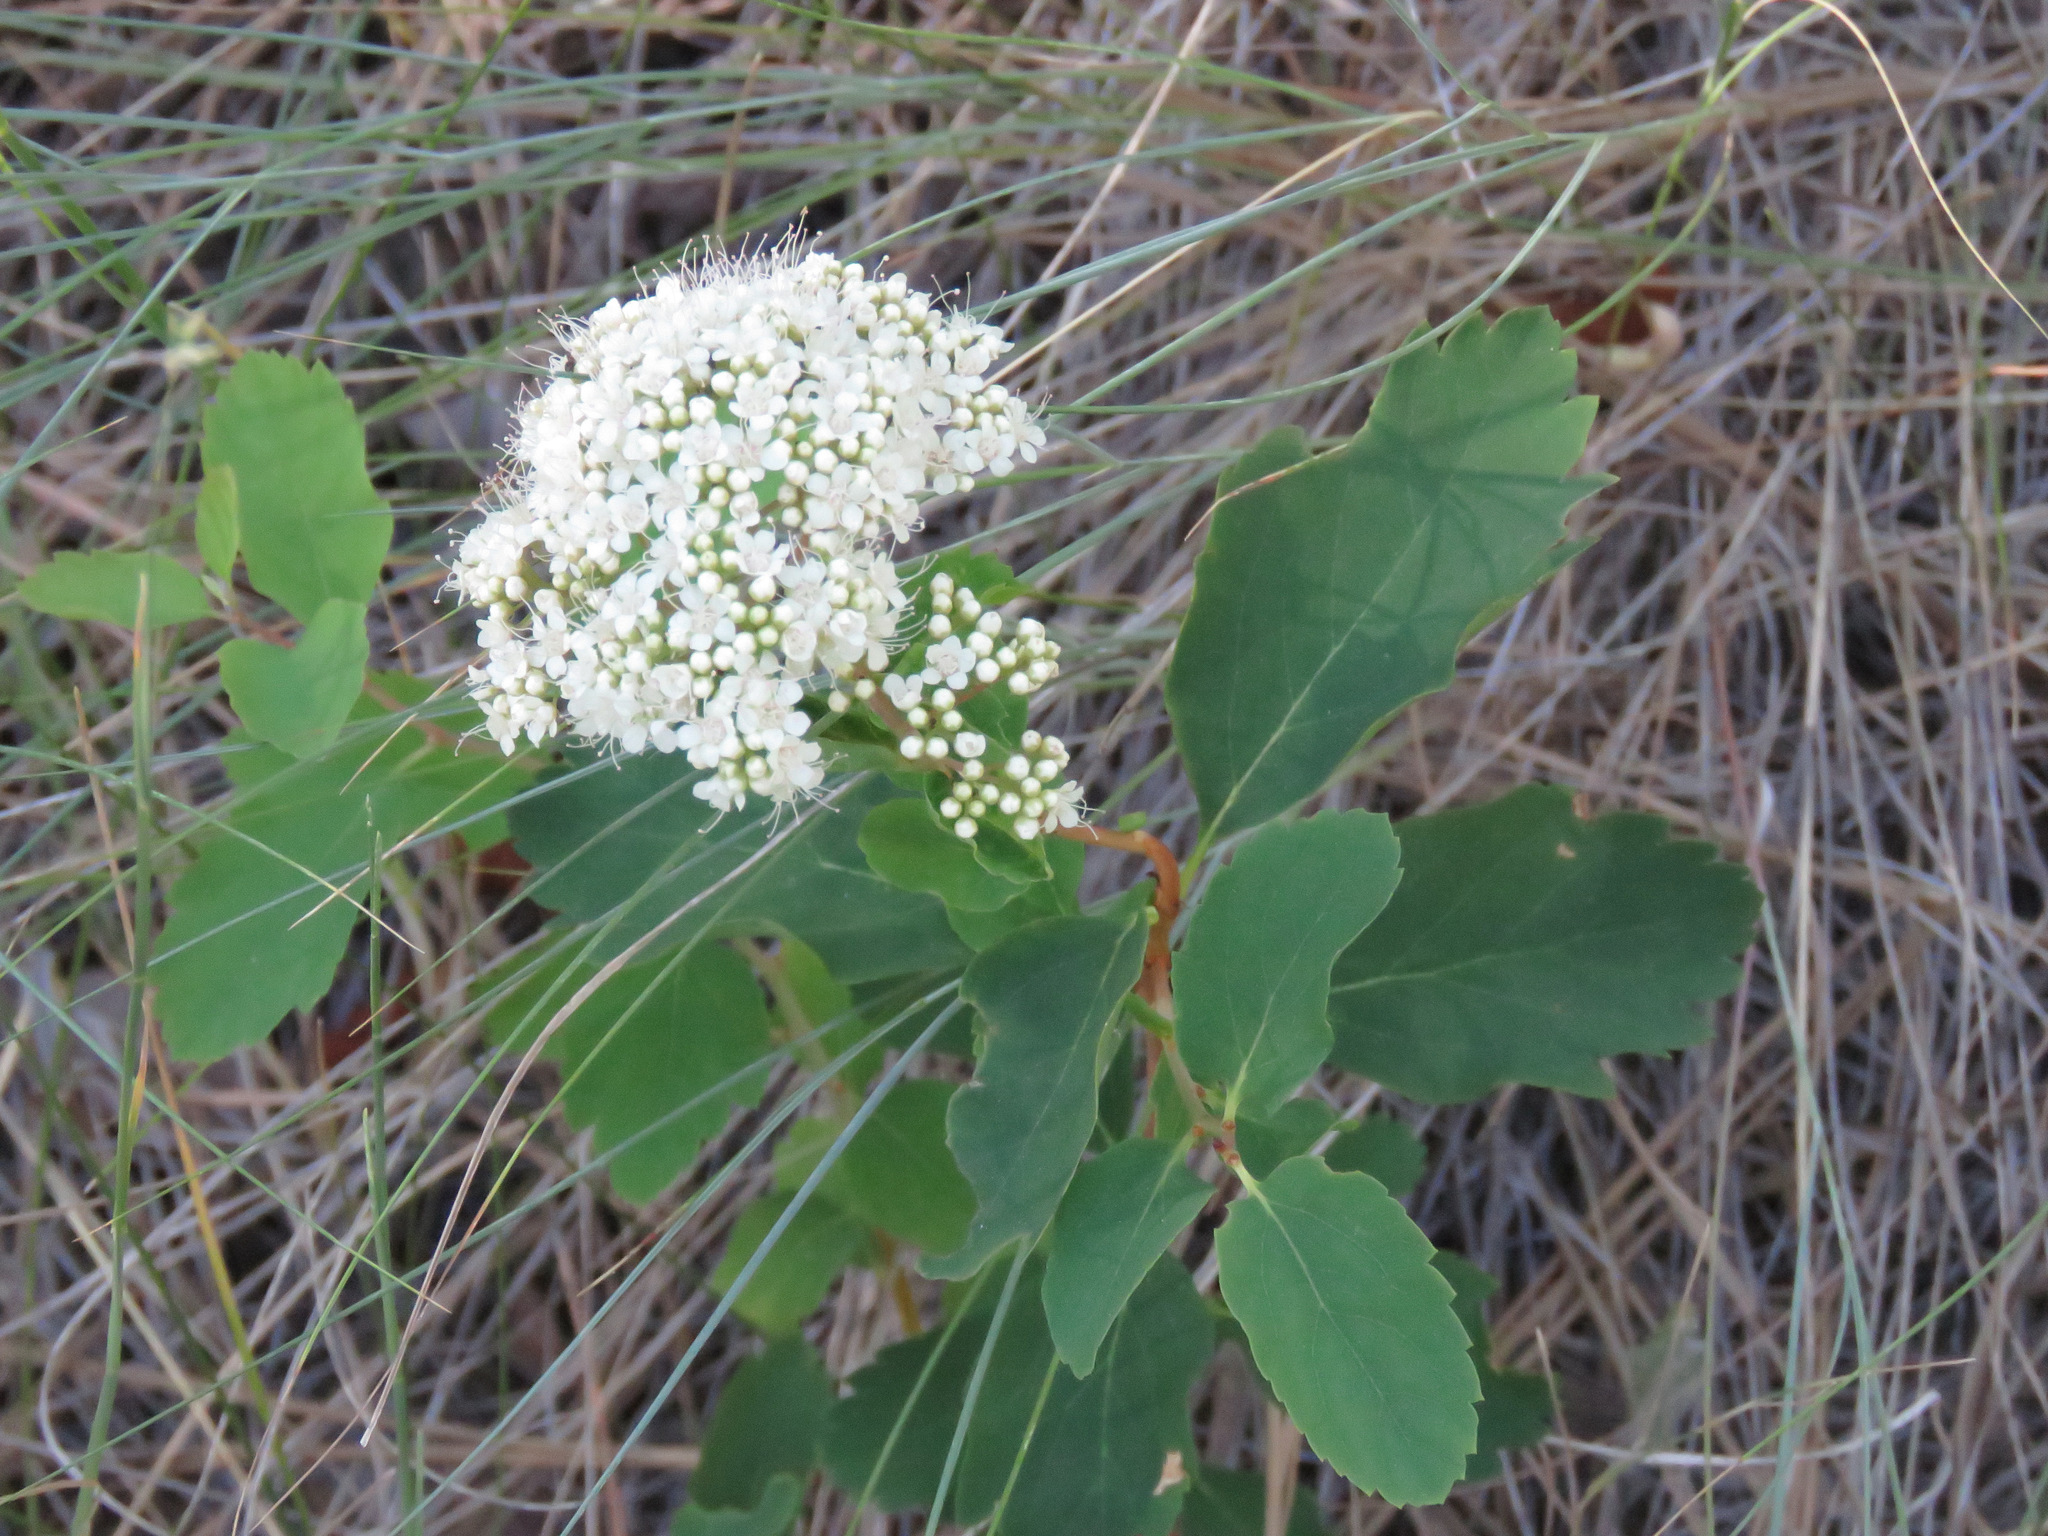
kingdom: Plantae
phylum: Tracheophyta
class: Magnoliopsida
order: Rosales
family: Rosaceae
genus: Spiraea
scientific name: Spiraea lucida
